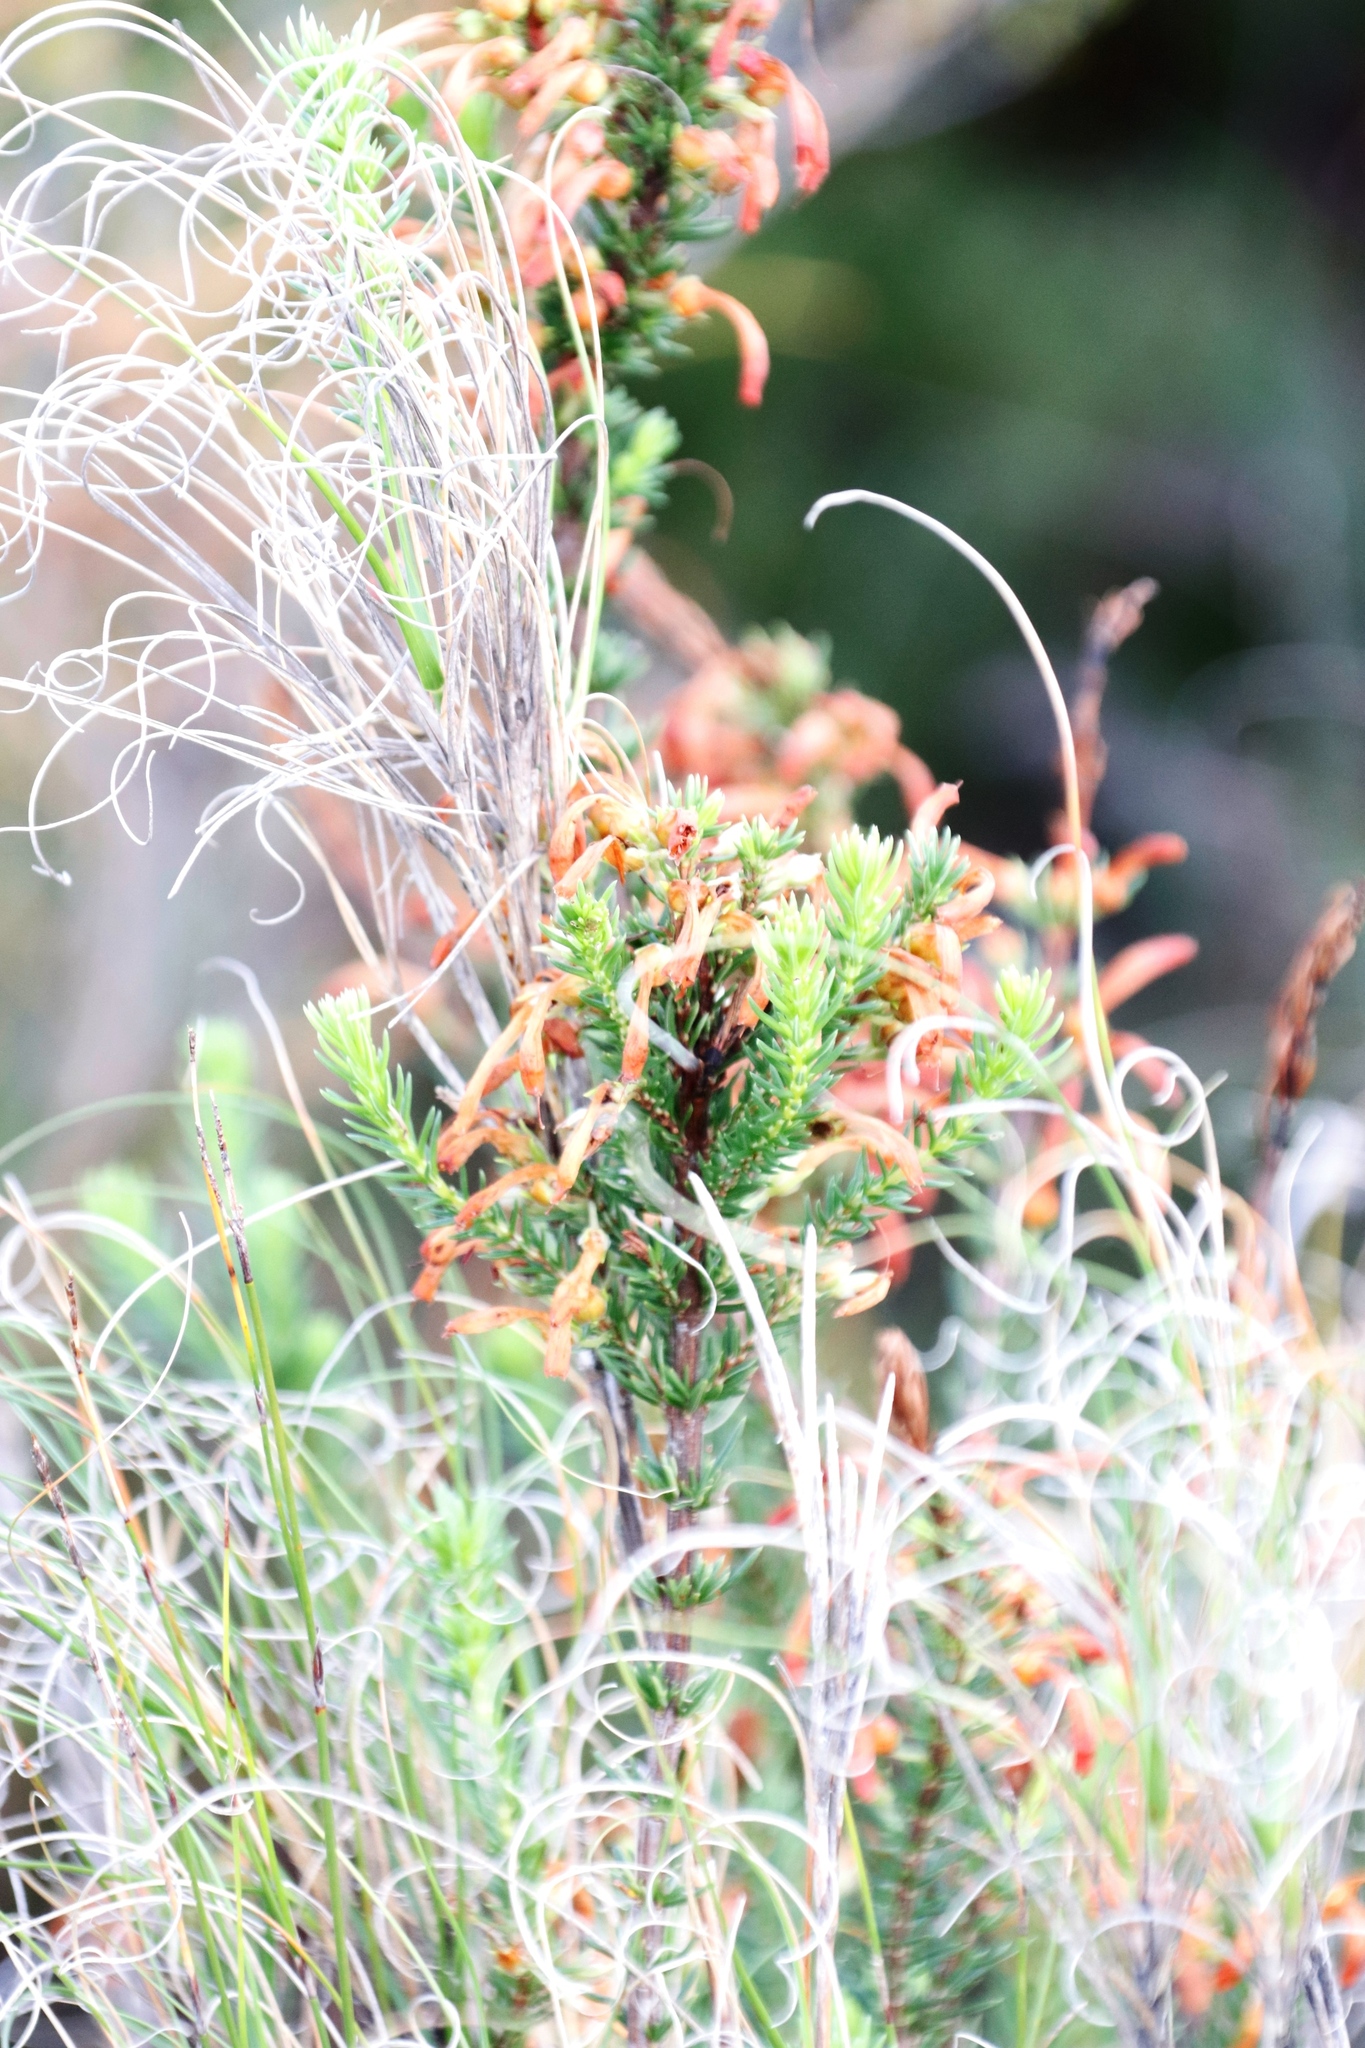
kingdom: Plantae
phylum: Tracheophyta
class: Magnoliopsida
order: Ericales
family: Ericaceae
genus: Erica
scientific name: Erica mammosa
